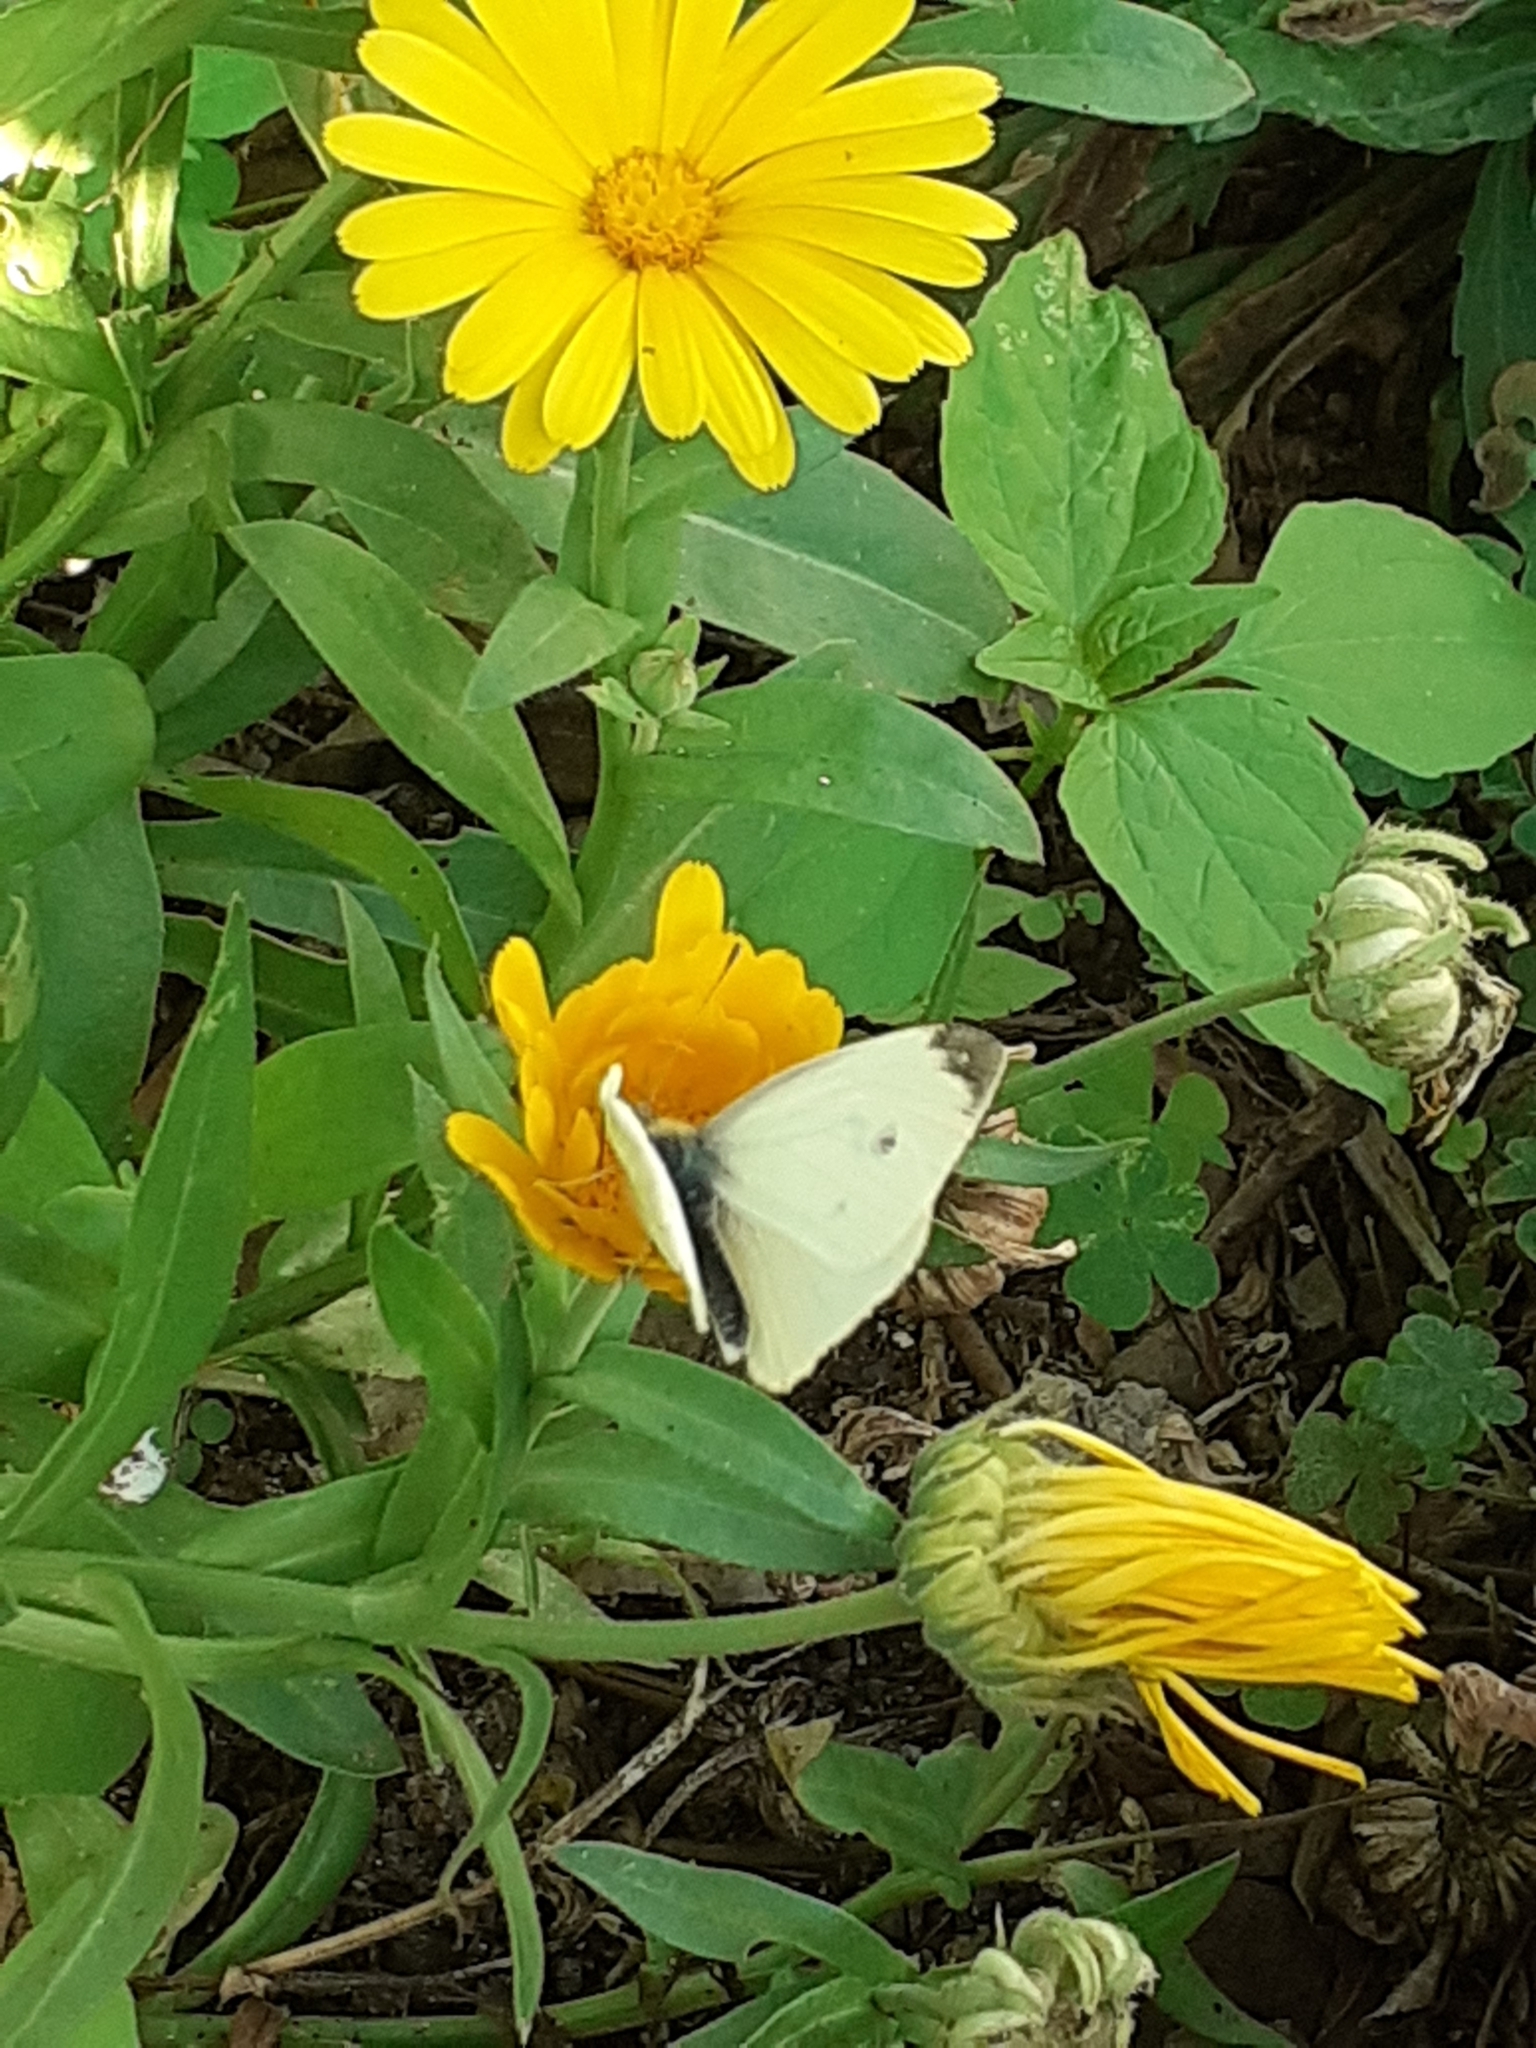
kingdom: Animalia
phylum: Arthropoda
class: Insecta
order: Lepidoptera
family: Pieridae
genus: Pieris
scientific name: Pieris rapae
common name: Small white
